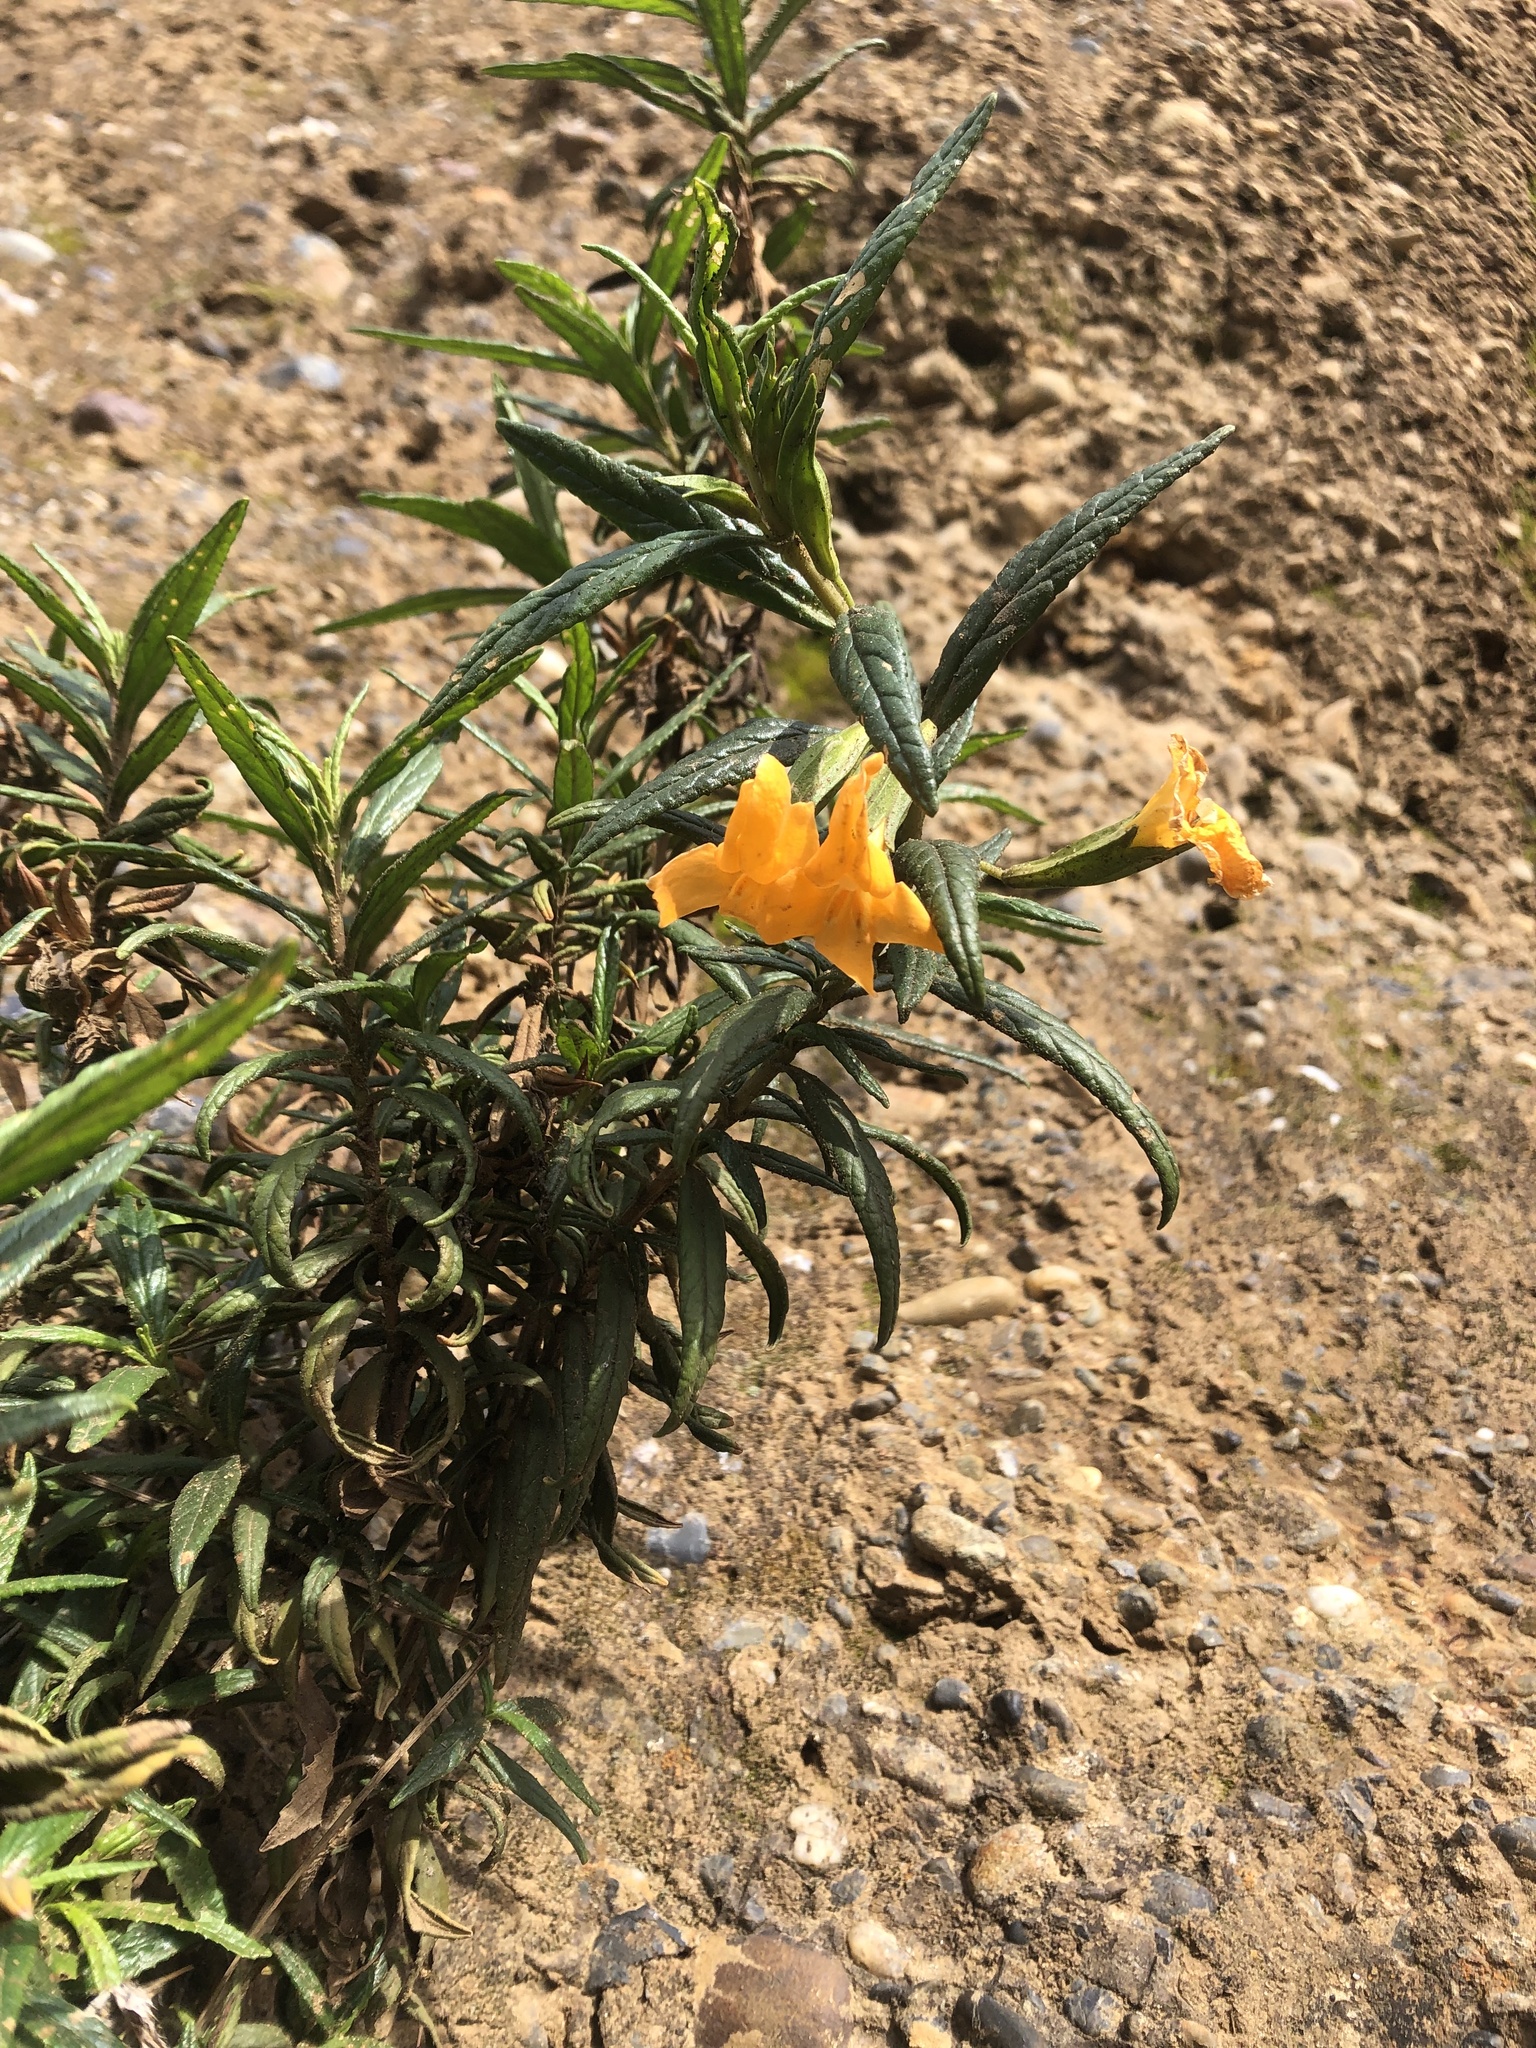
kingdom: Plantae
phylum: Tracheophyta
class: Magnoliopsida
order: Lamiales
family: Phrymaceae
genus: Diplacus
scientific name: Diplacus aurantiacus
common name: Bush monkey-flower
